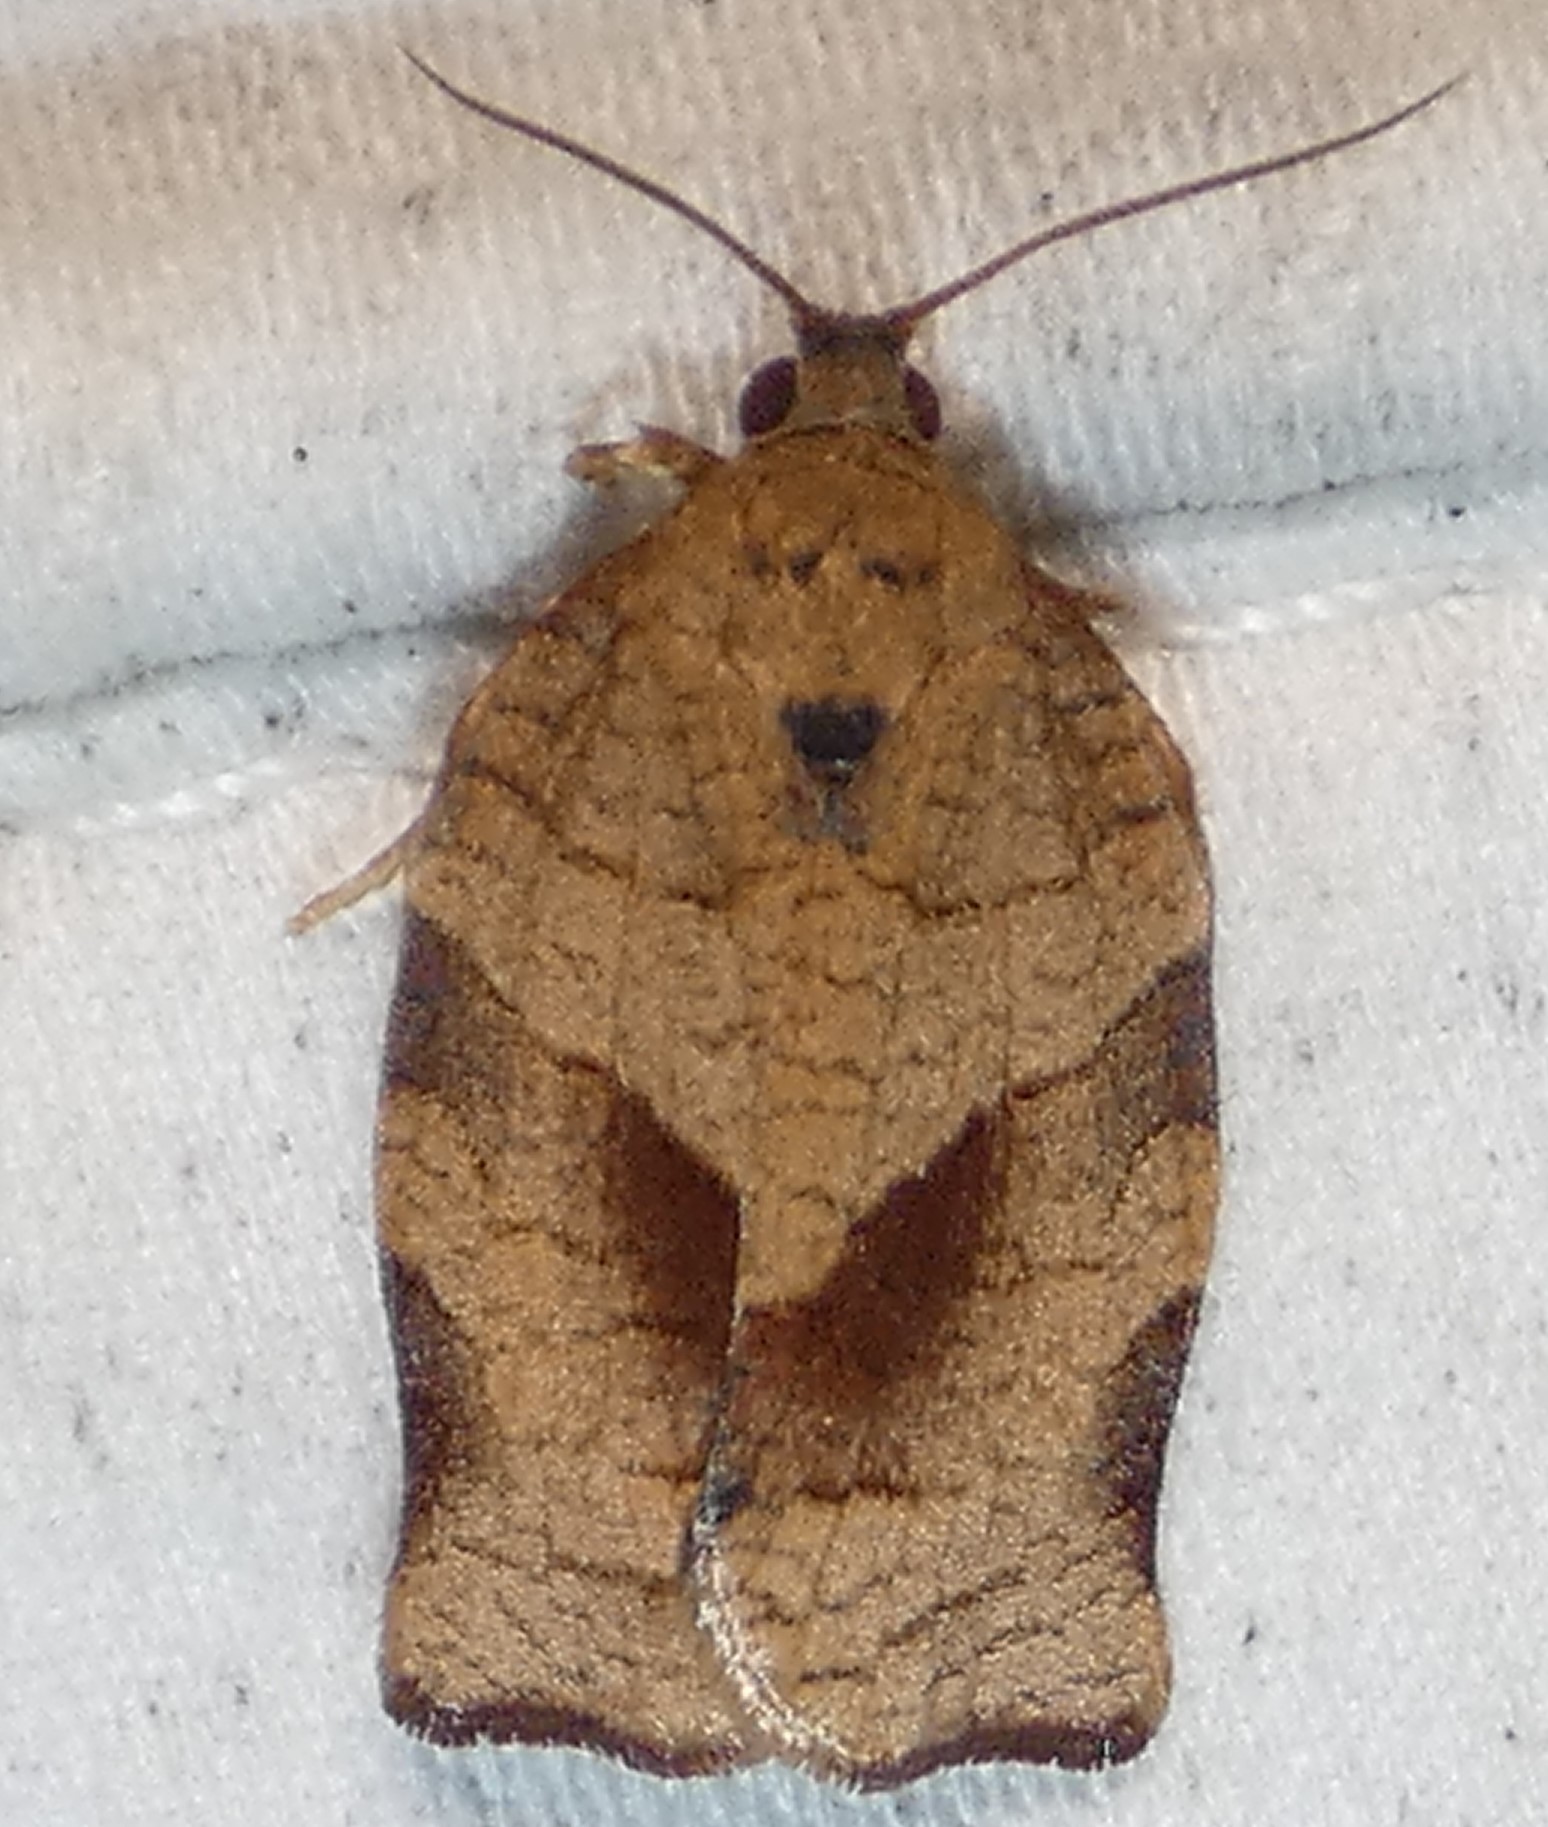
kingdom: Animalia
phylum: Arthropoda
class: Insecta
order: Lepidoptera
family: Tortricidae
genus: Choristoneura
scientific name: Choristoneura rosaceana
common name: Oblique-banded leafroller moth
